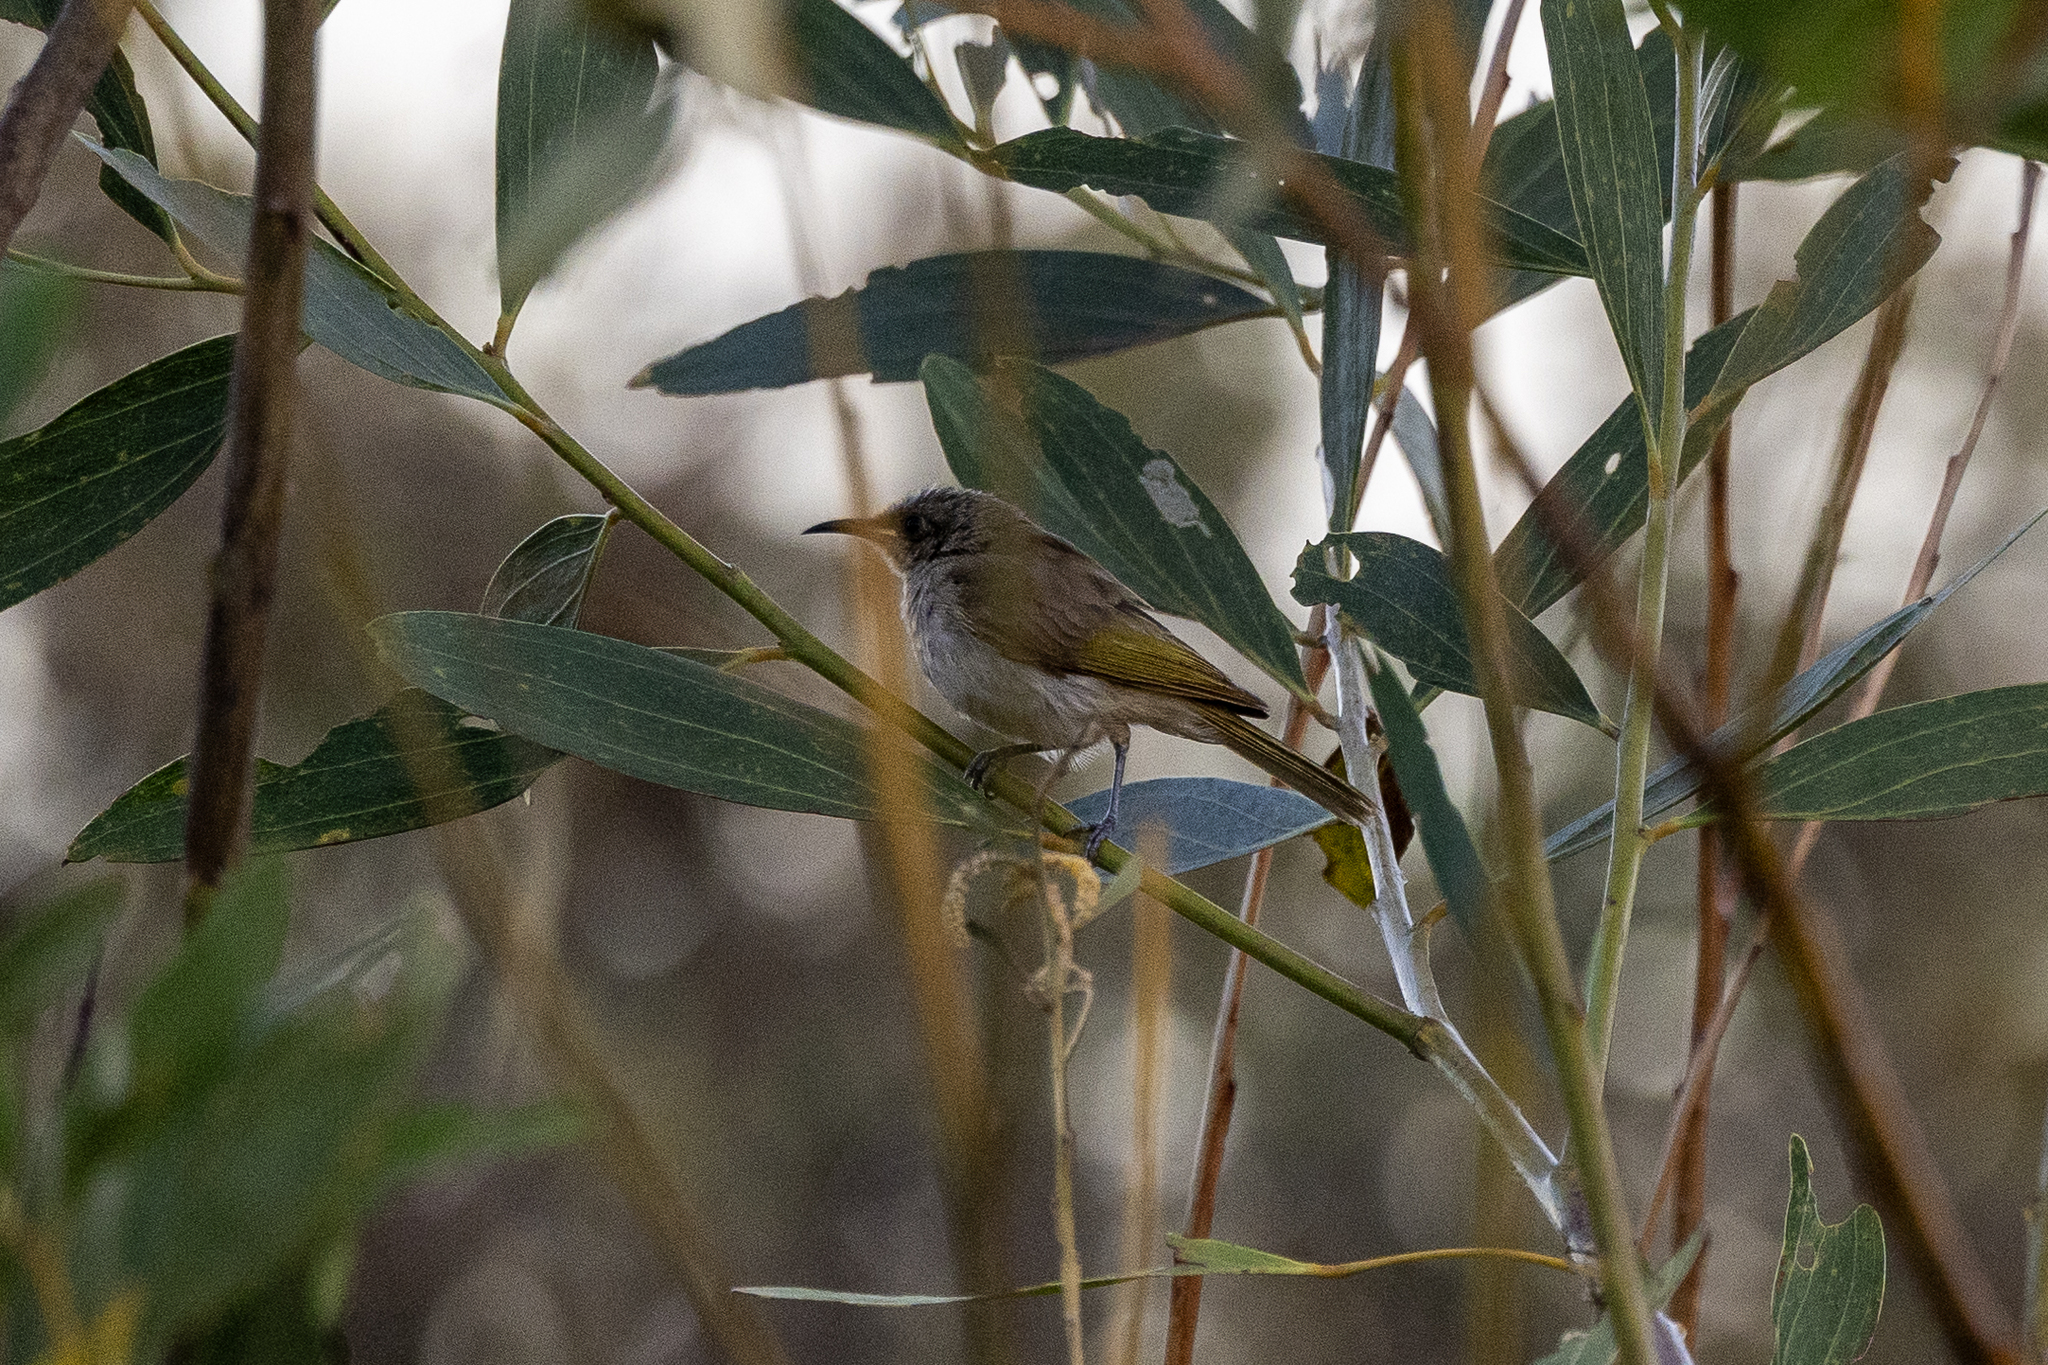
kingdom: Animalia
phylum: Chordata
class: Aves
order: Passeriformes
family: Meliphagidae
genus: Lichmera
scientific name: Lichmera indistincta
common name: Brown honeyeater
